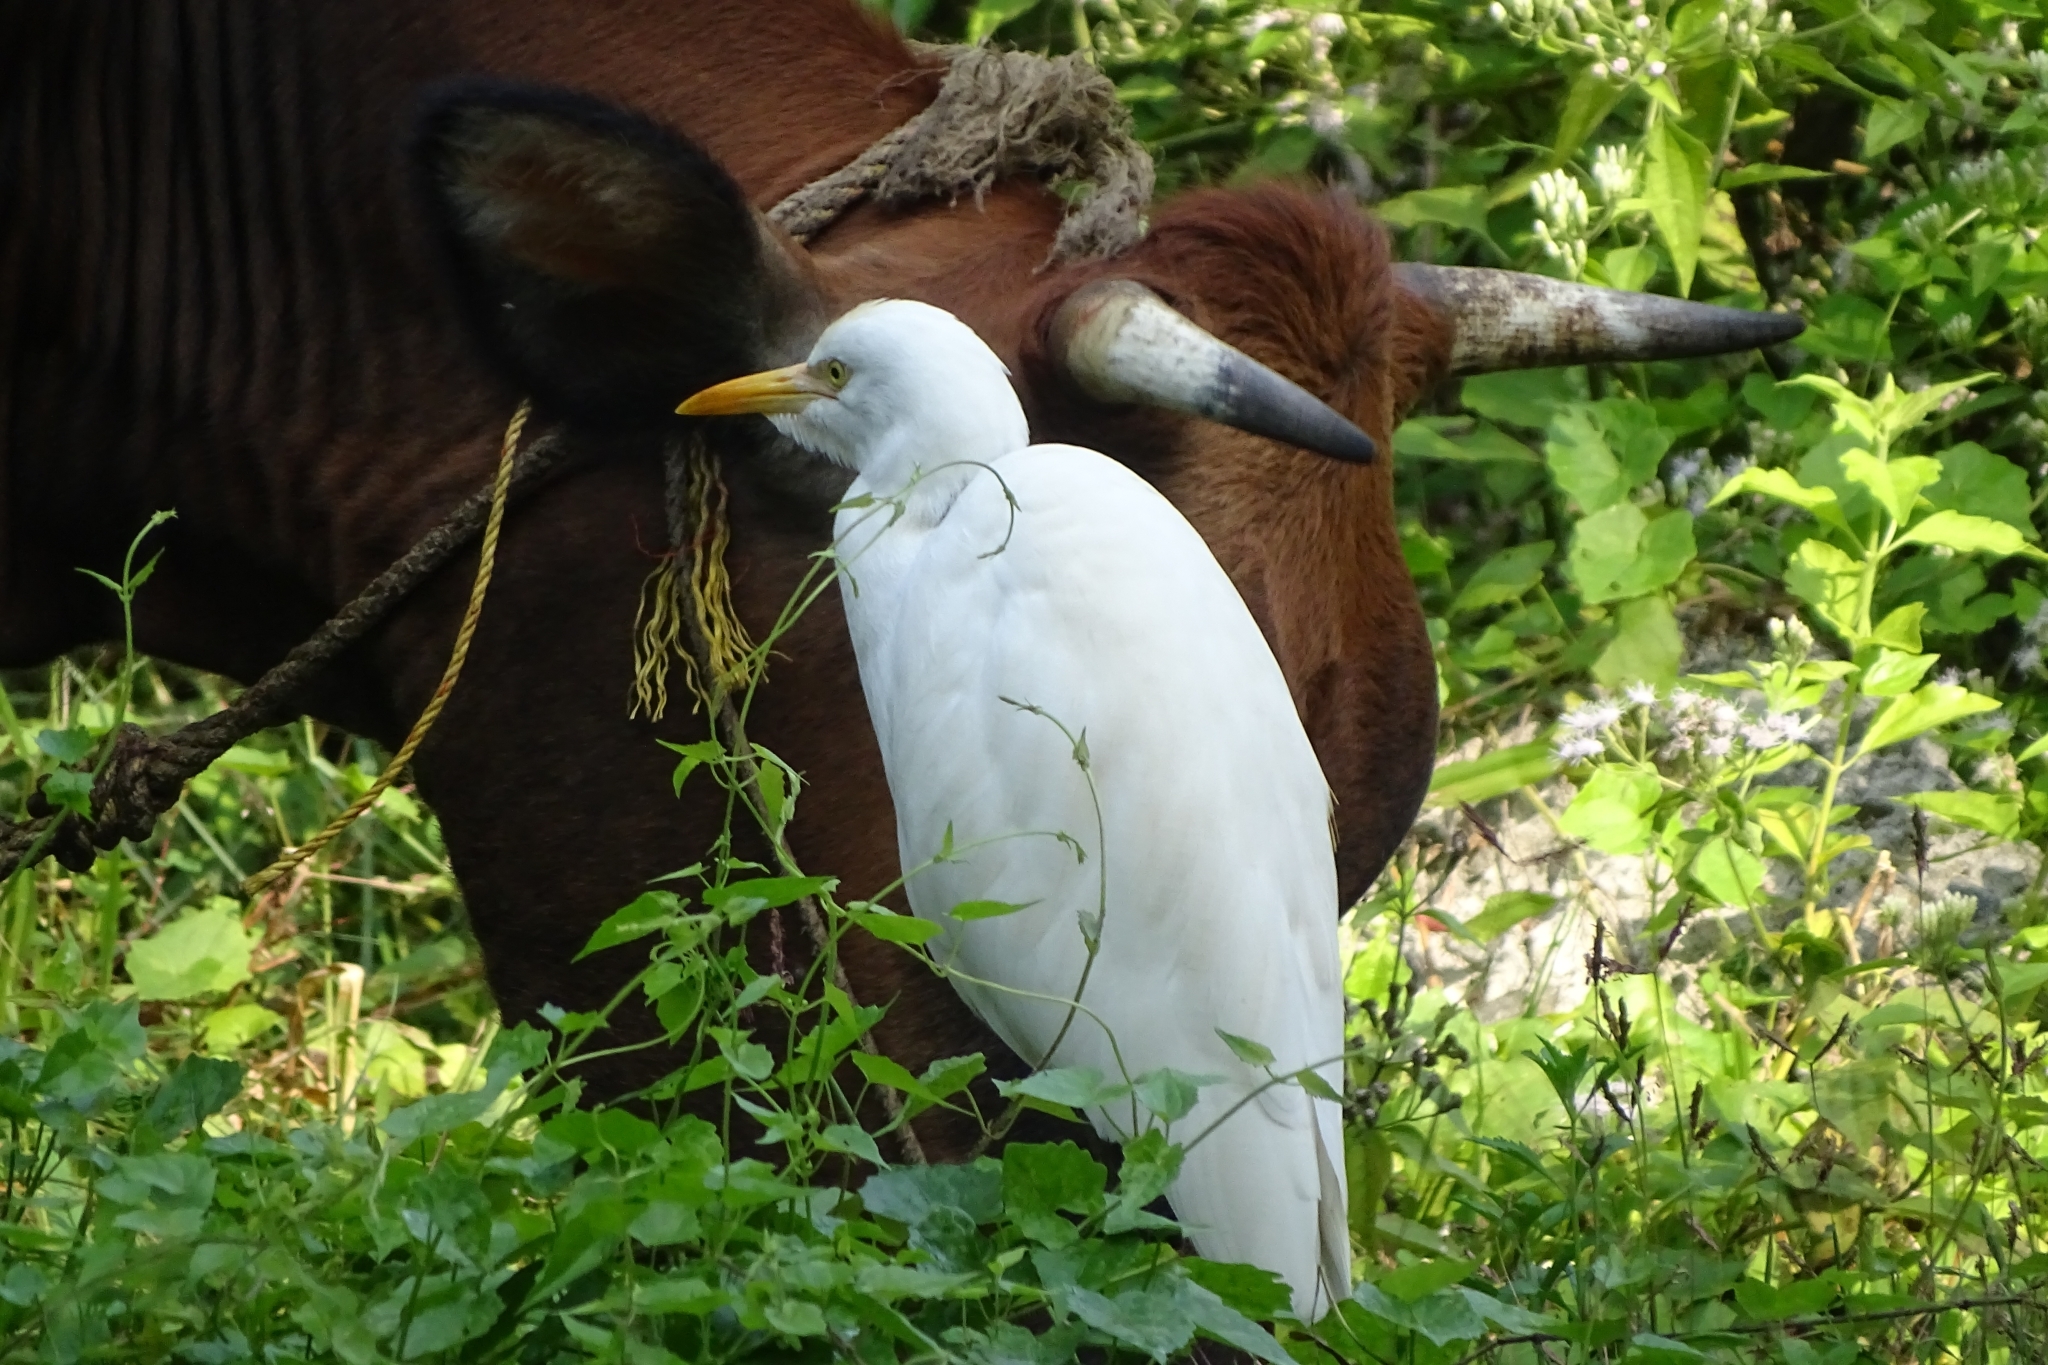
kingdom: Animalia
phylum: Chordata
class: Aves
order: Pelecaniformes
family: Ardeidae
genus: Bubulcus
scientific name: Bubulcus coromandus
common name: Eastern cattle egret
